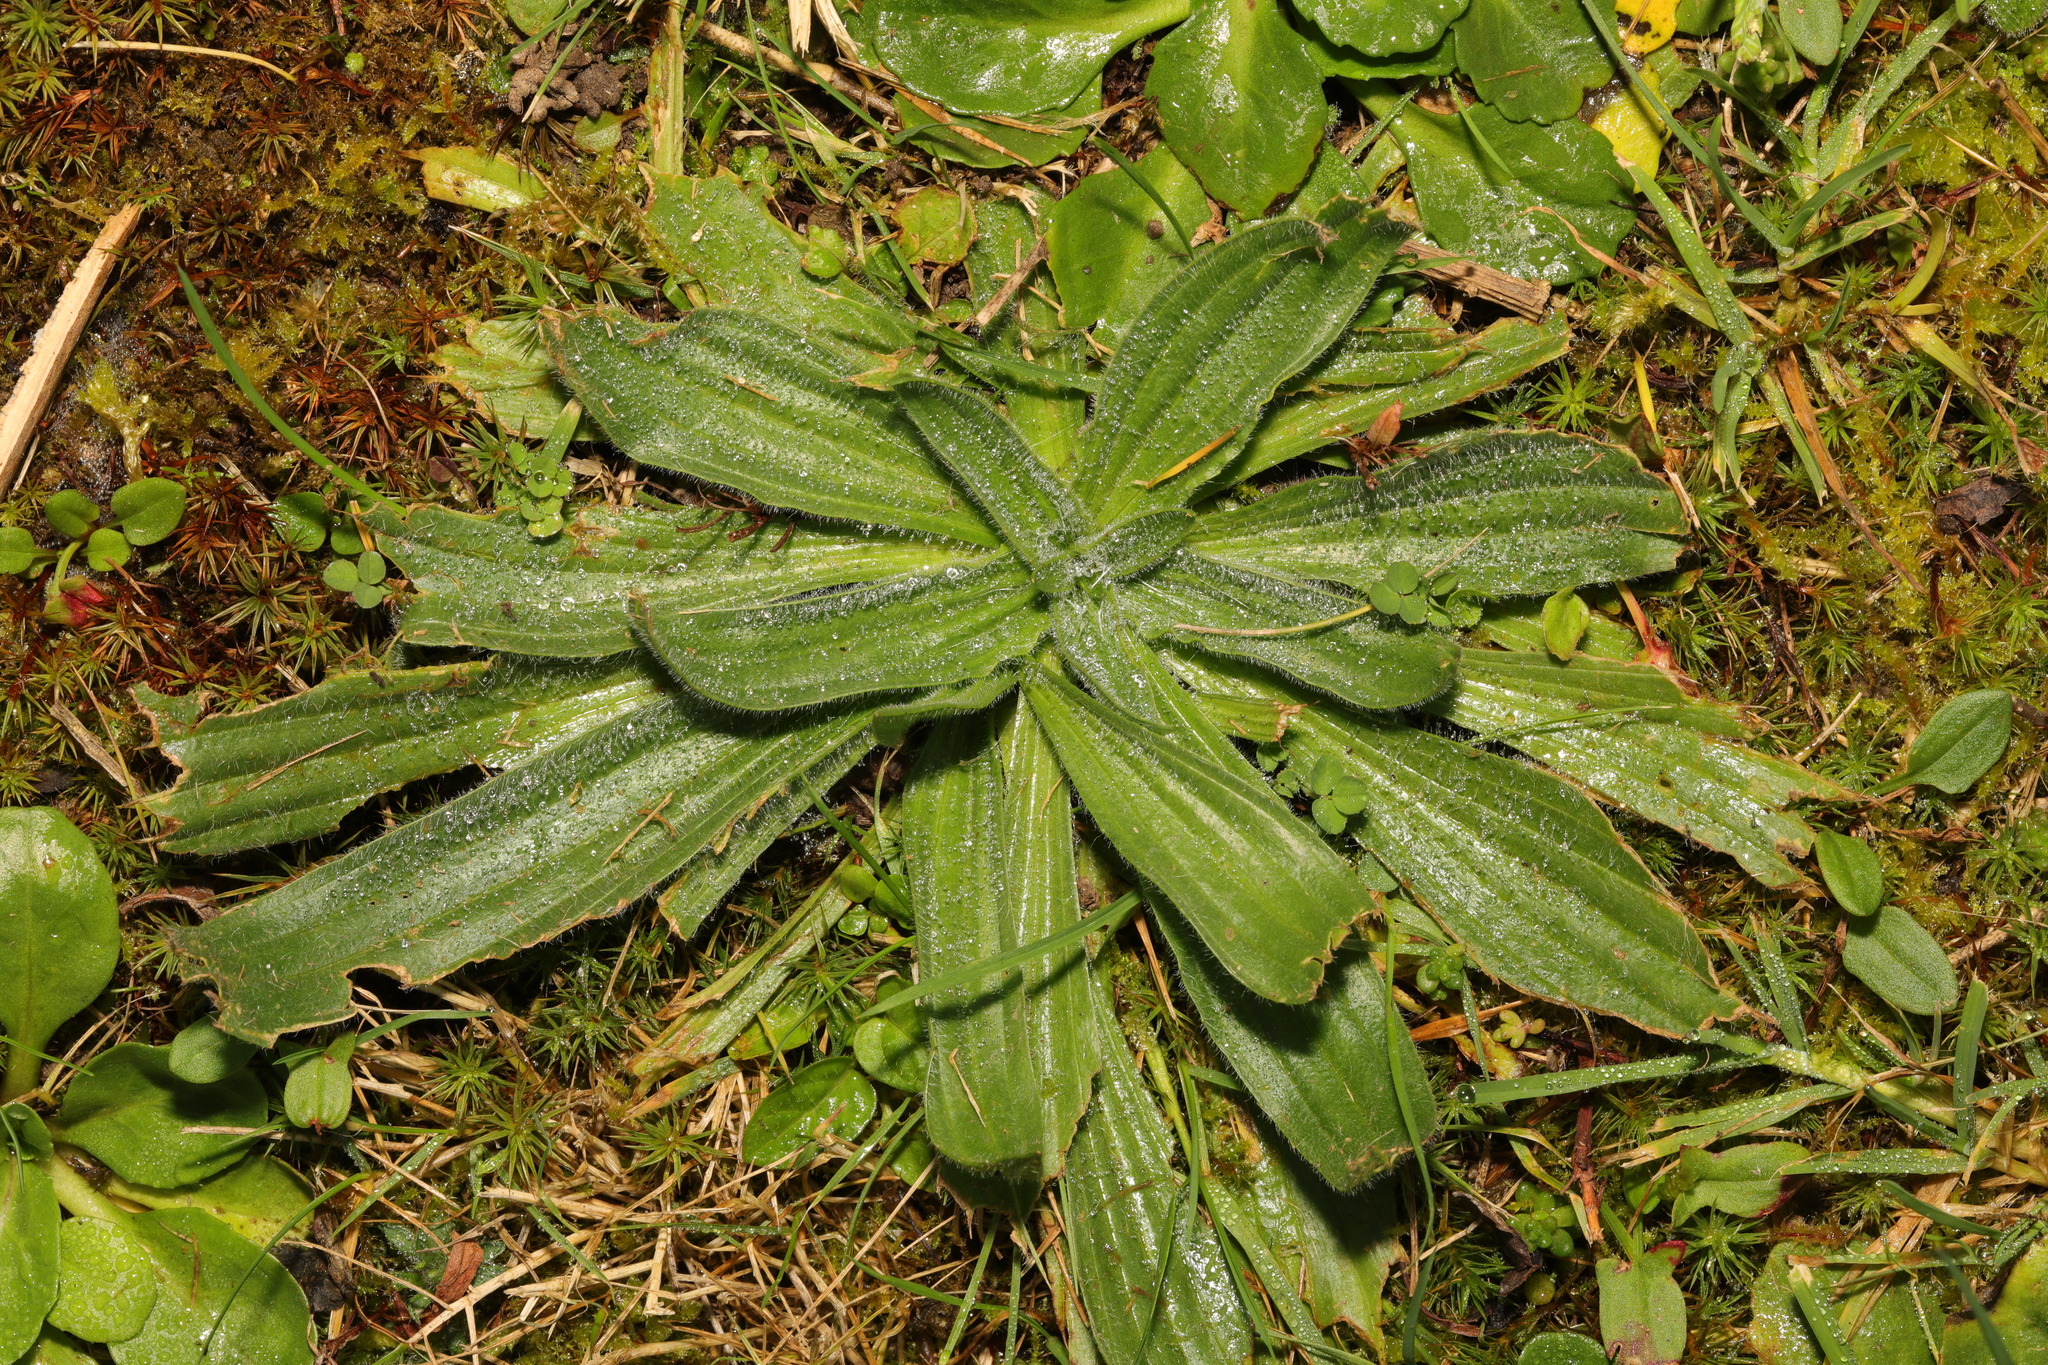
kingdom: Plantae
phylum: Tracheophyta
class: Magnoliopsida
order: Lamiales
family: Plantaginaceae
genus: Plantago
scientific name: Plantago lanceolata
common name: Ribwort plantain
